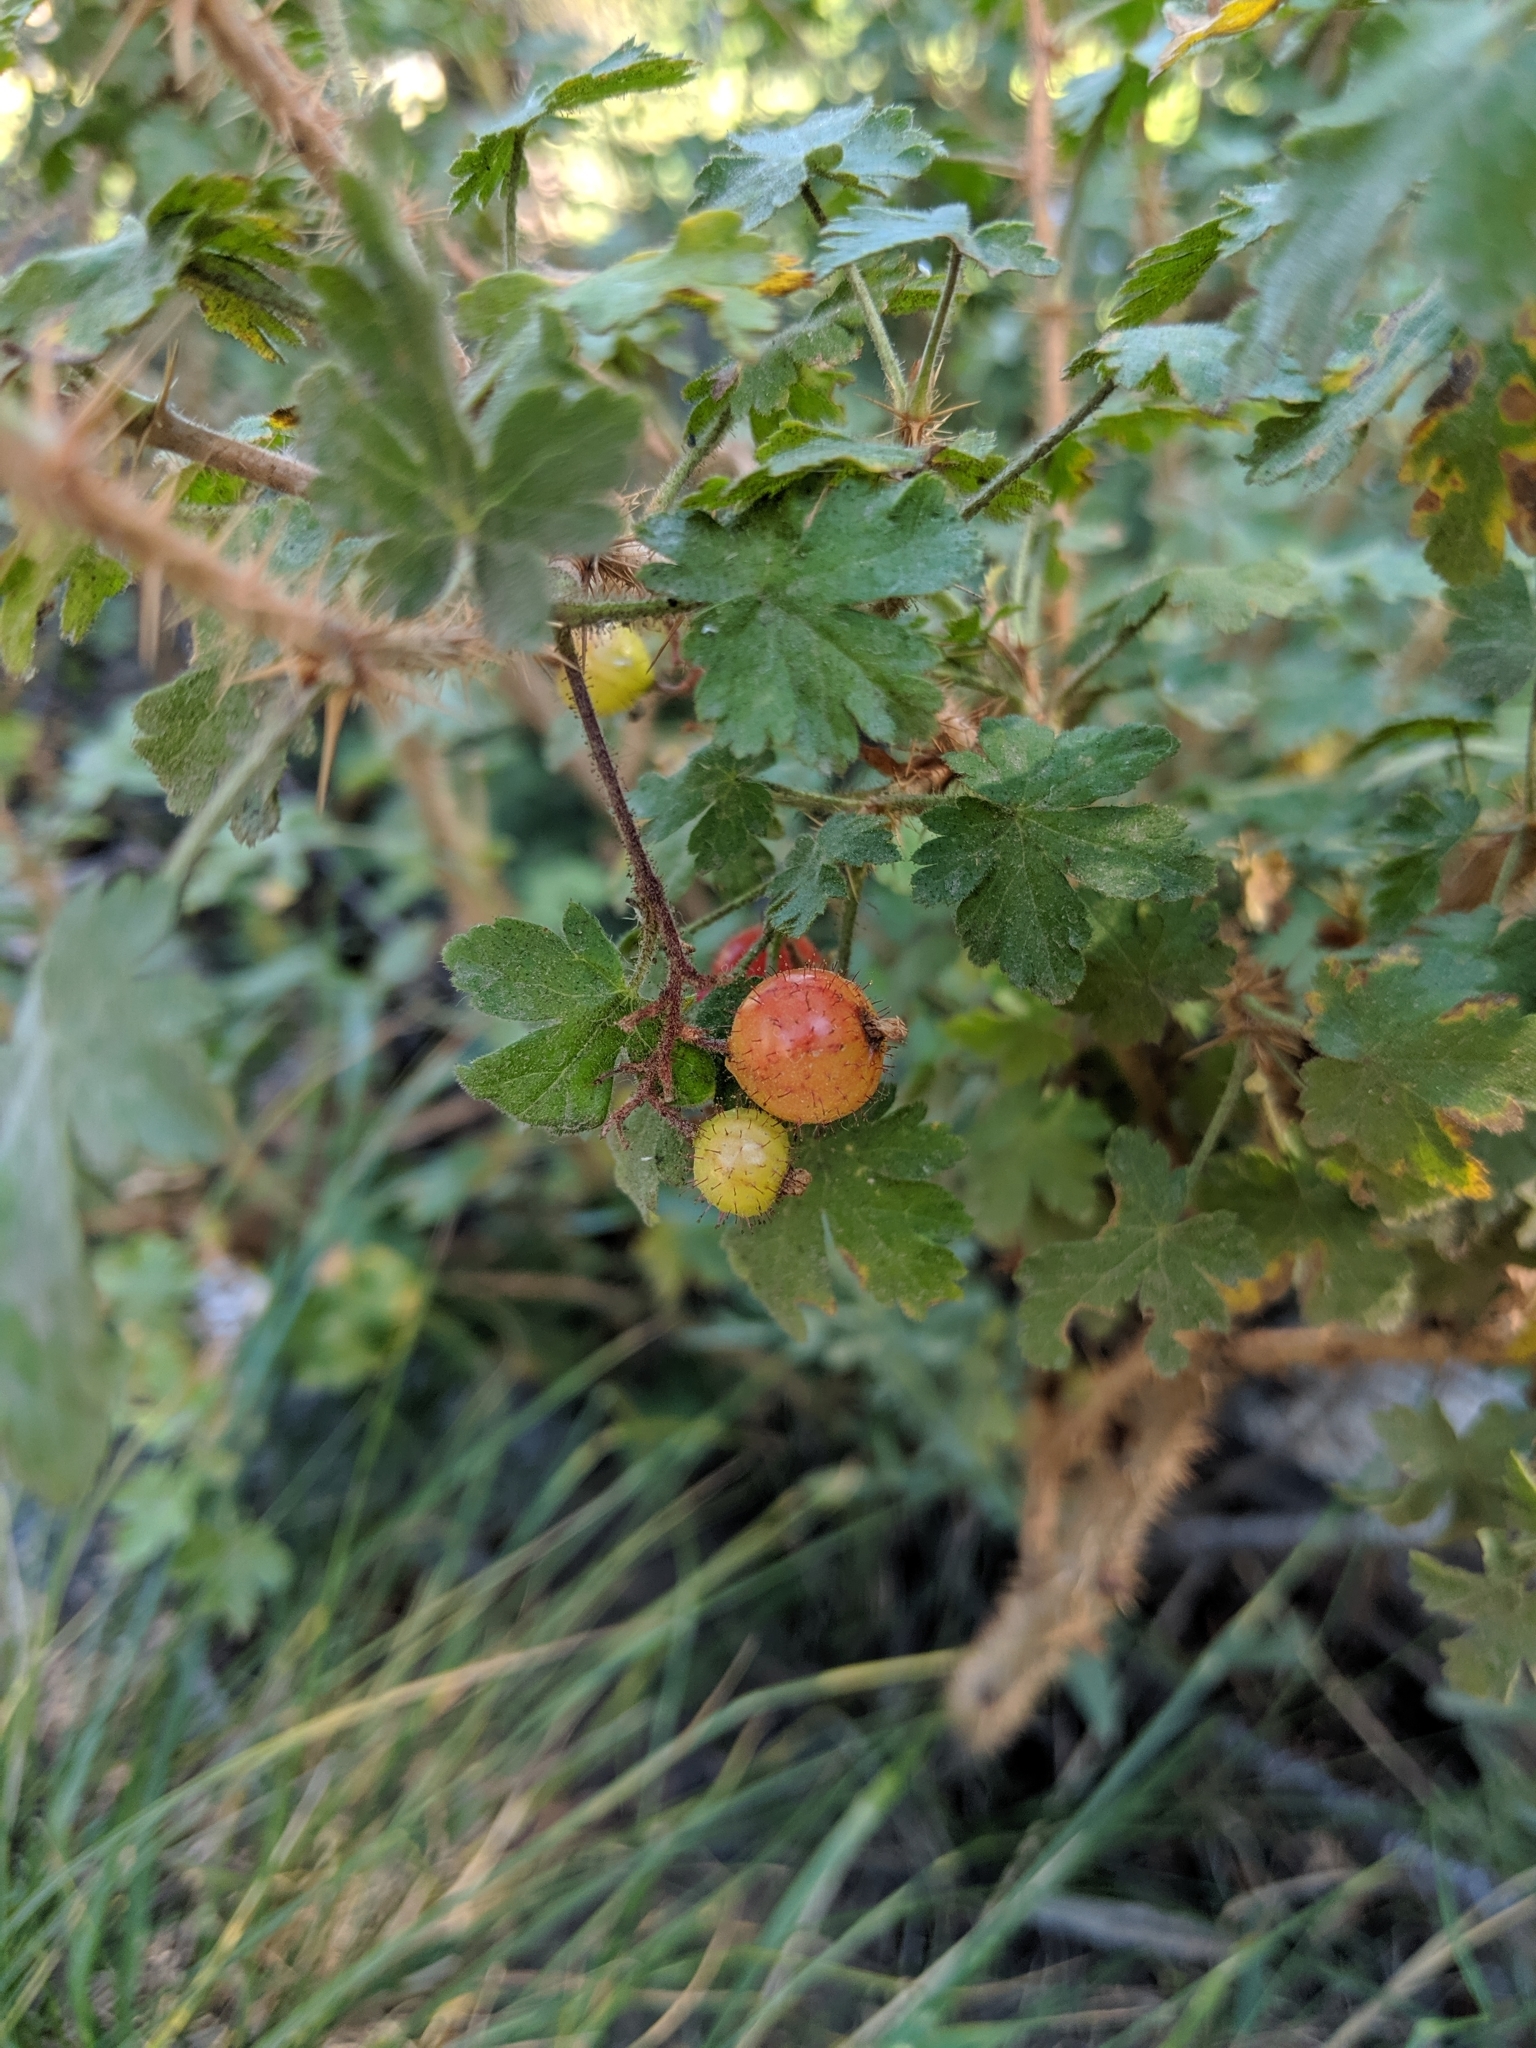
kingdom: Plantae
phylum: Tracheophyta
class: Magnoliopsida
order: Saxifragales
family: Grossulariaceae
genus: Ribes
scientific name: Ribes montigenum
